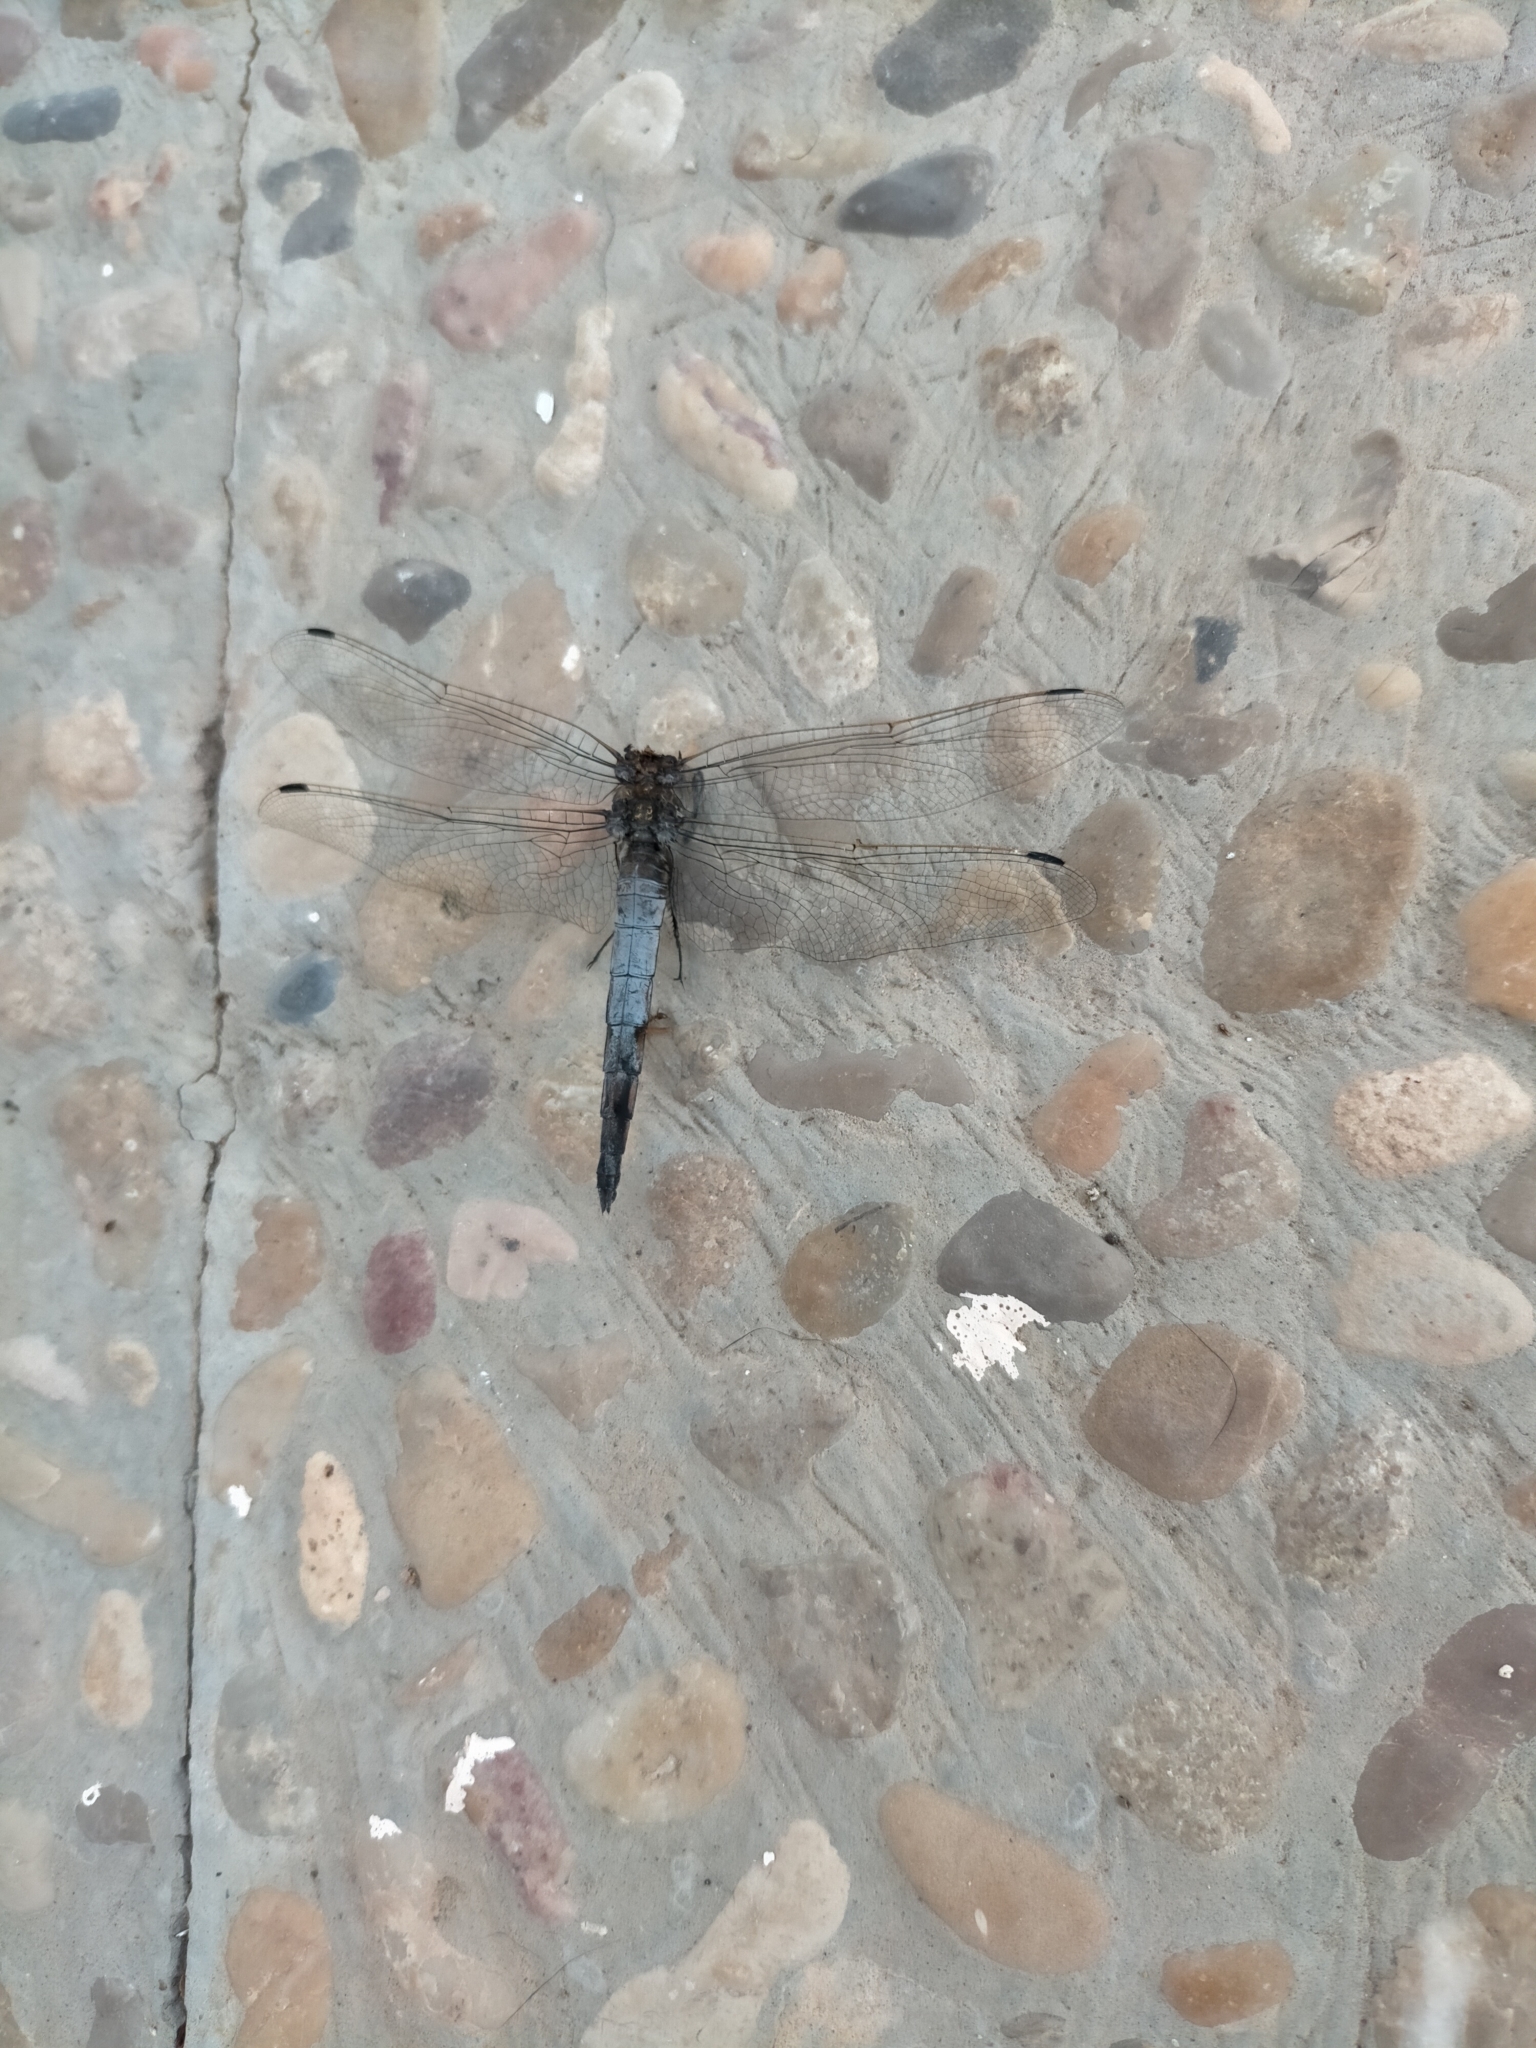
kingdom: Animalia
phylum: Arthropoda
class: Insecta
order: Odonata
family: Libellulidae
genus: Orthetrum
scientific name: Orthetrum cancellatum
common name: Black-tailed skimmer
